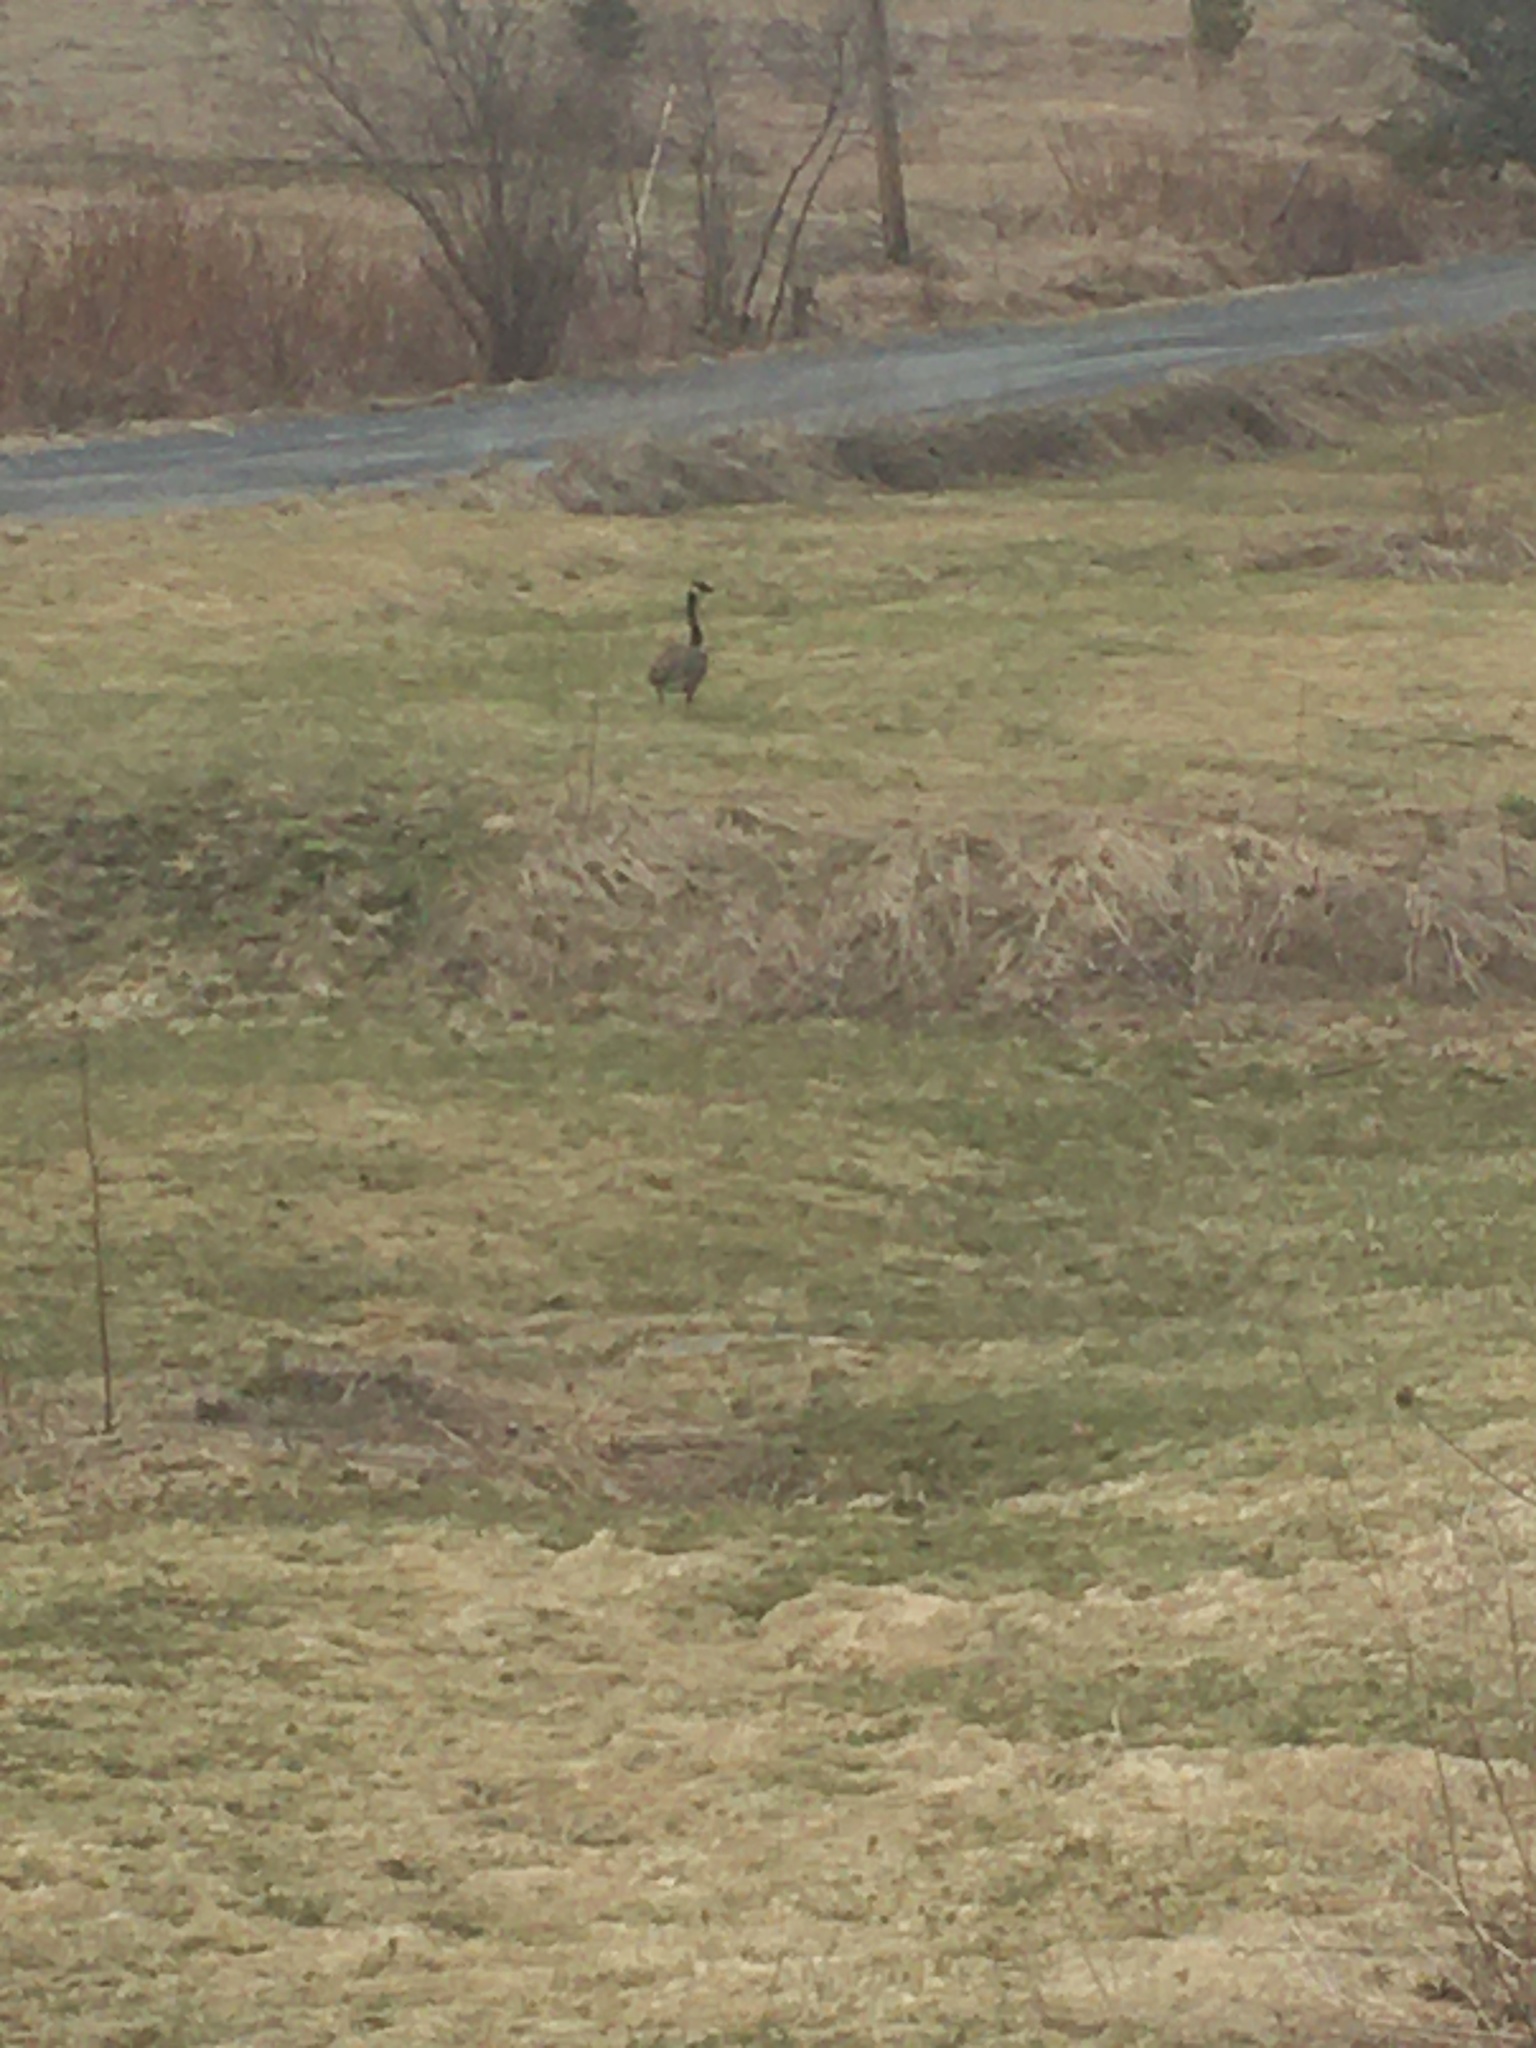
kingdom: Animalia
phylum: Chordata
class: Aves
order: Anseriformes
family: Anatidae
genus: Branta
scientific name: Branta canadensis
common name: Canada goose
